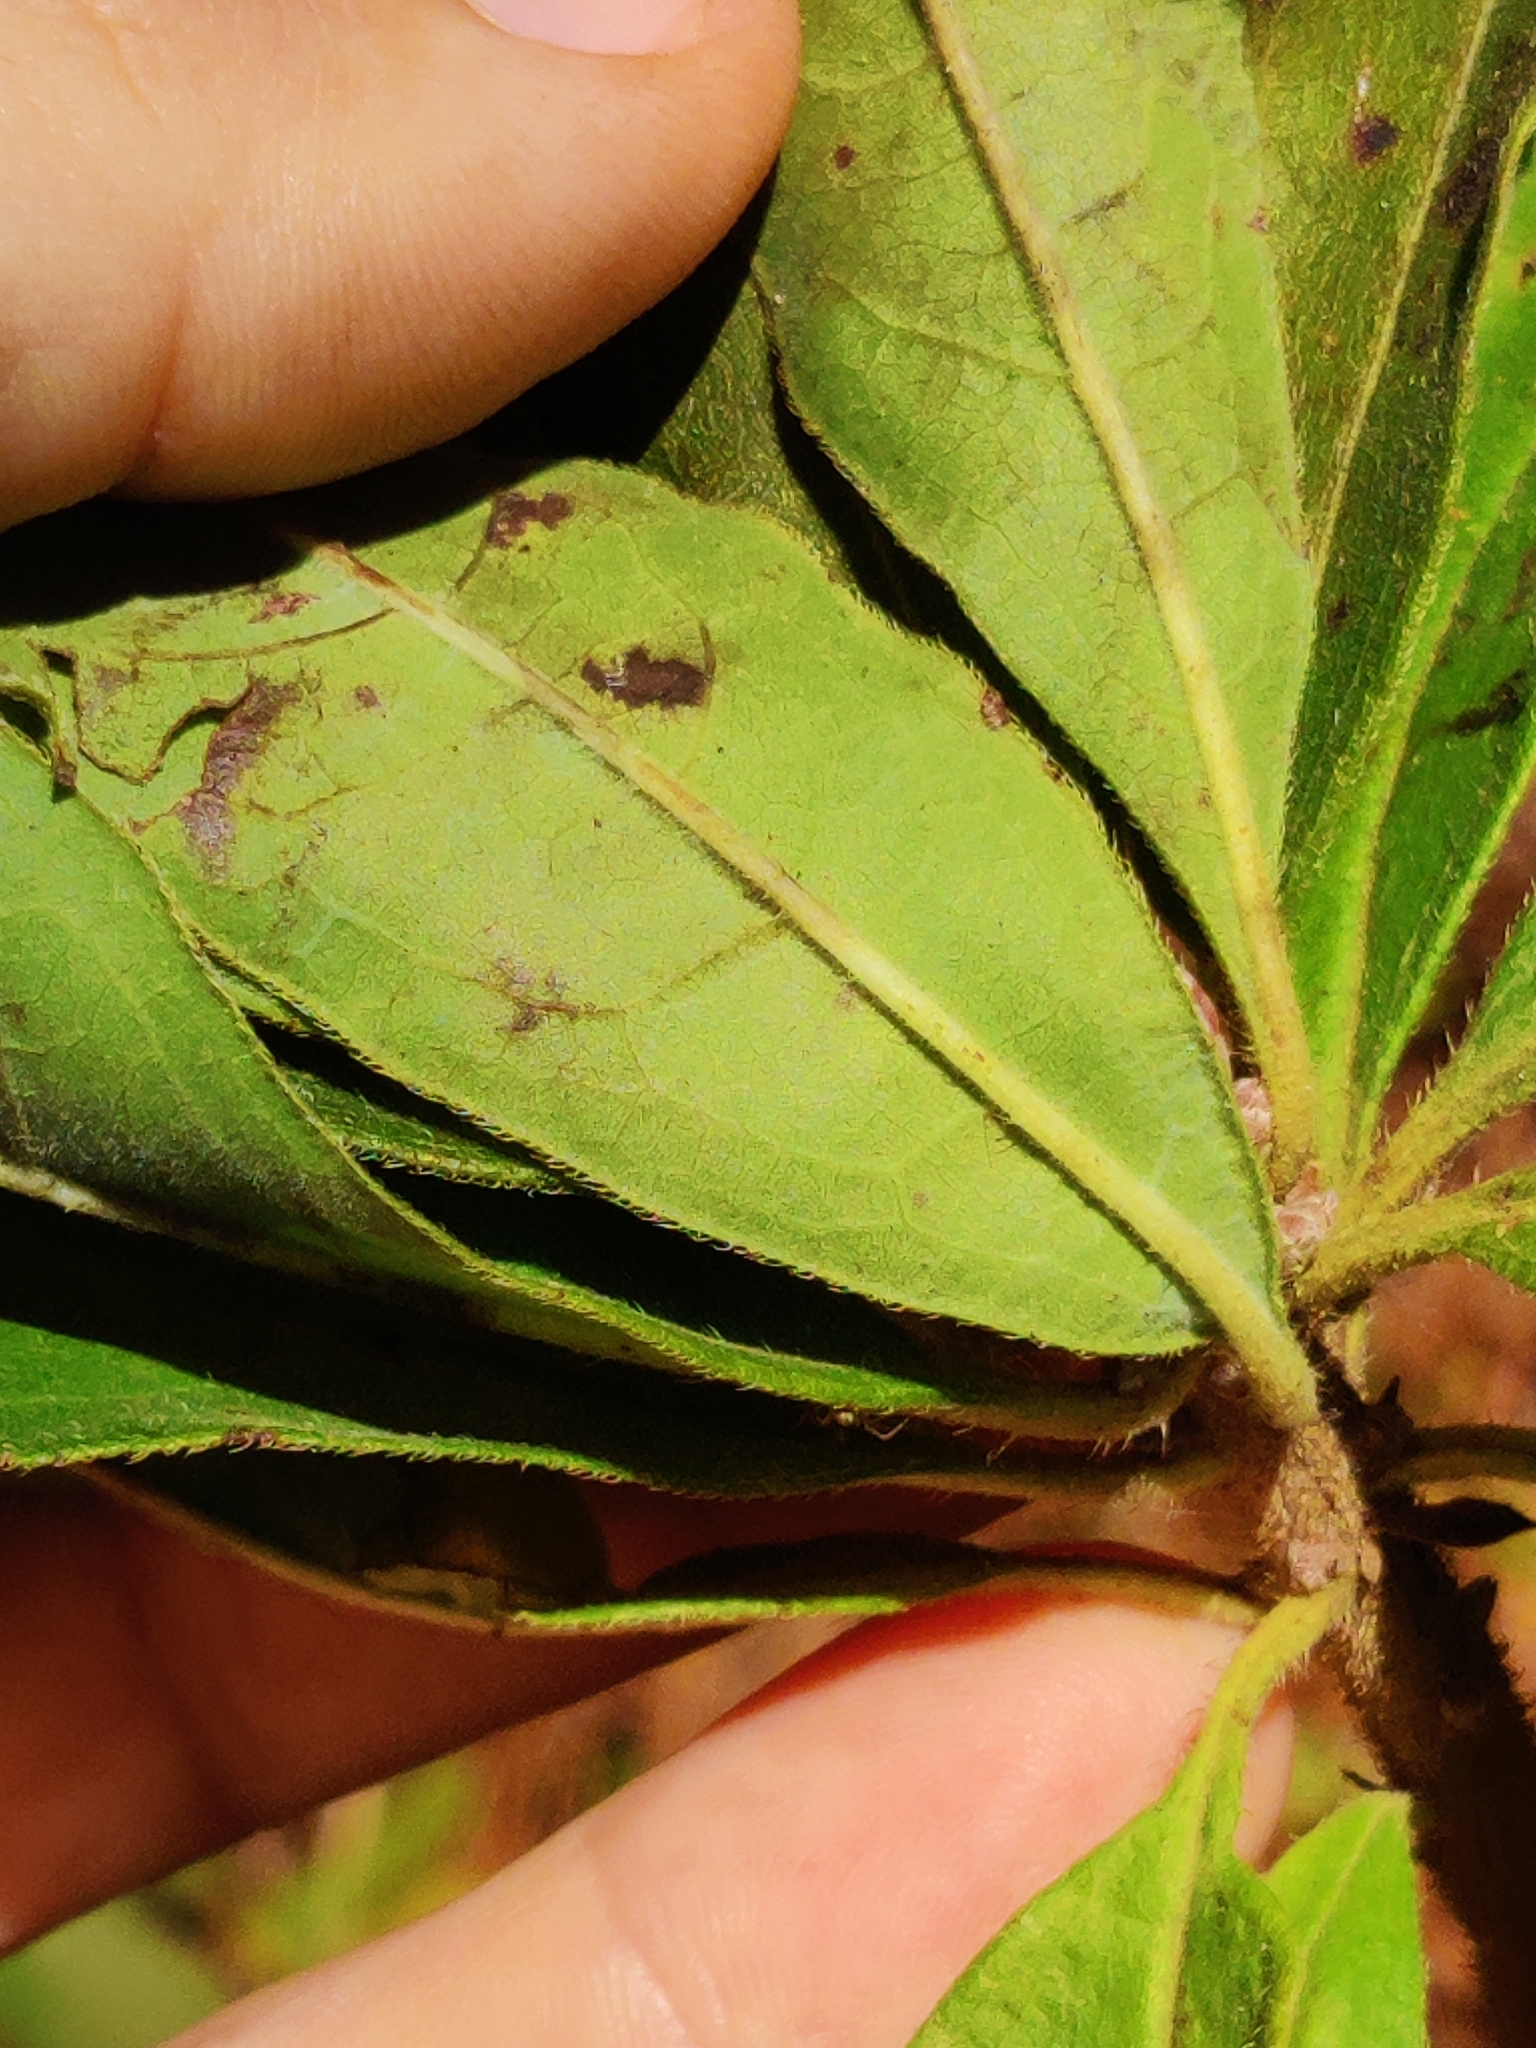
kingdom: Plantae
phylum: Tracheophyta
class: Magnoliopsida
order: Ericales
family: Ericaceae
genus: Rhododendron
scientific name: Rhododendron canescens
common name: Mountain azalea
